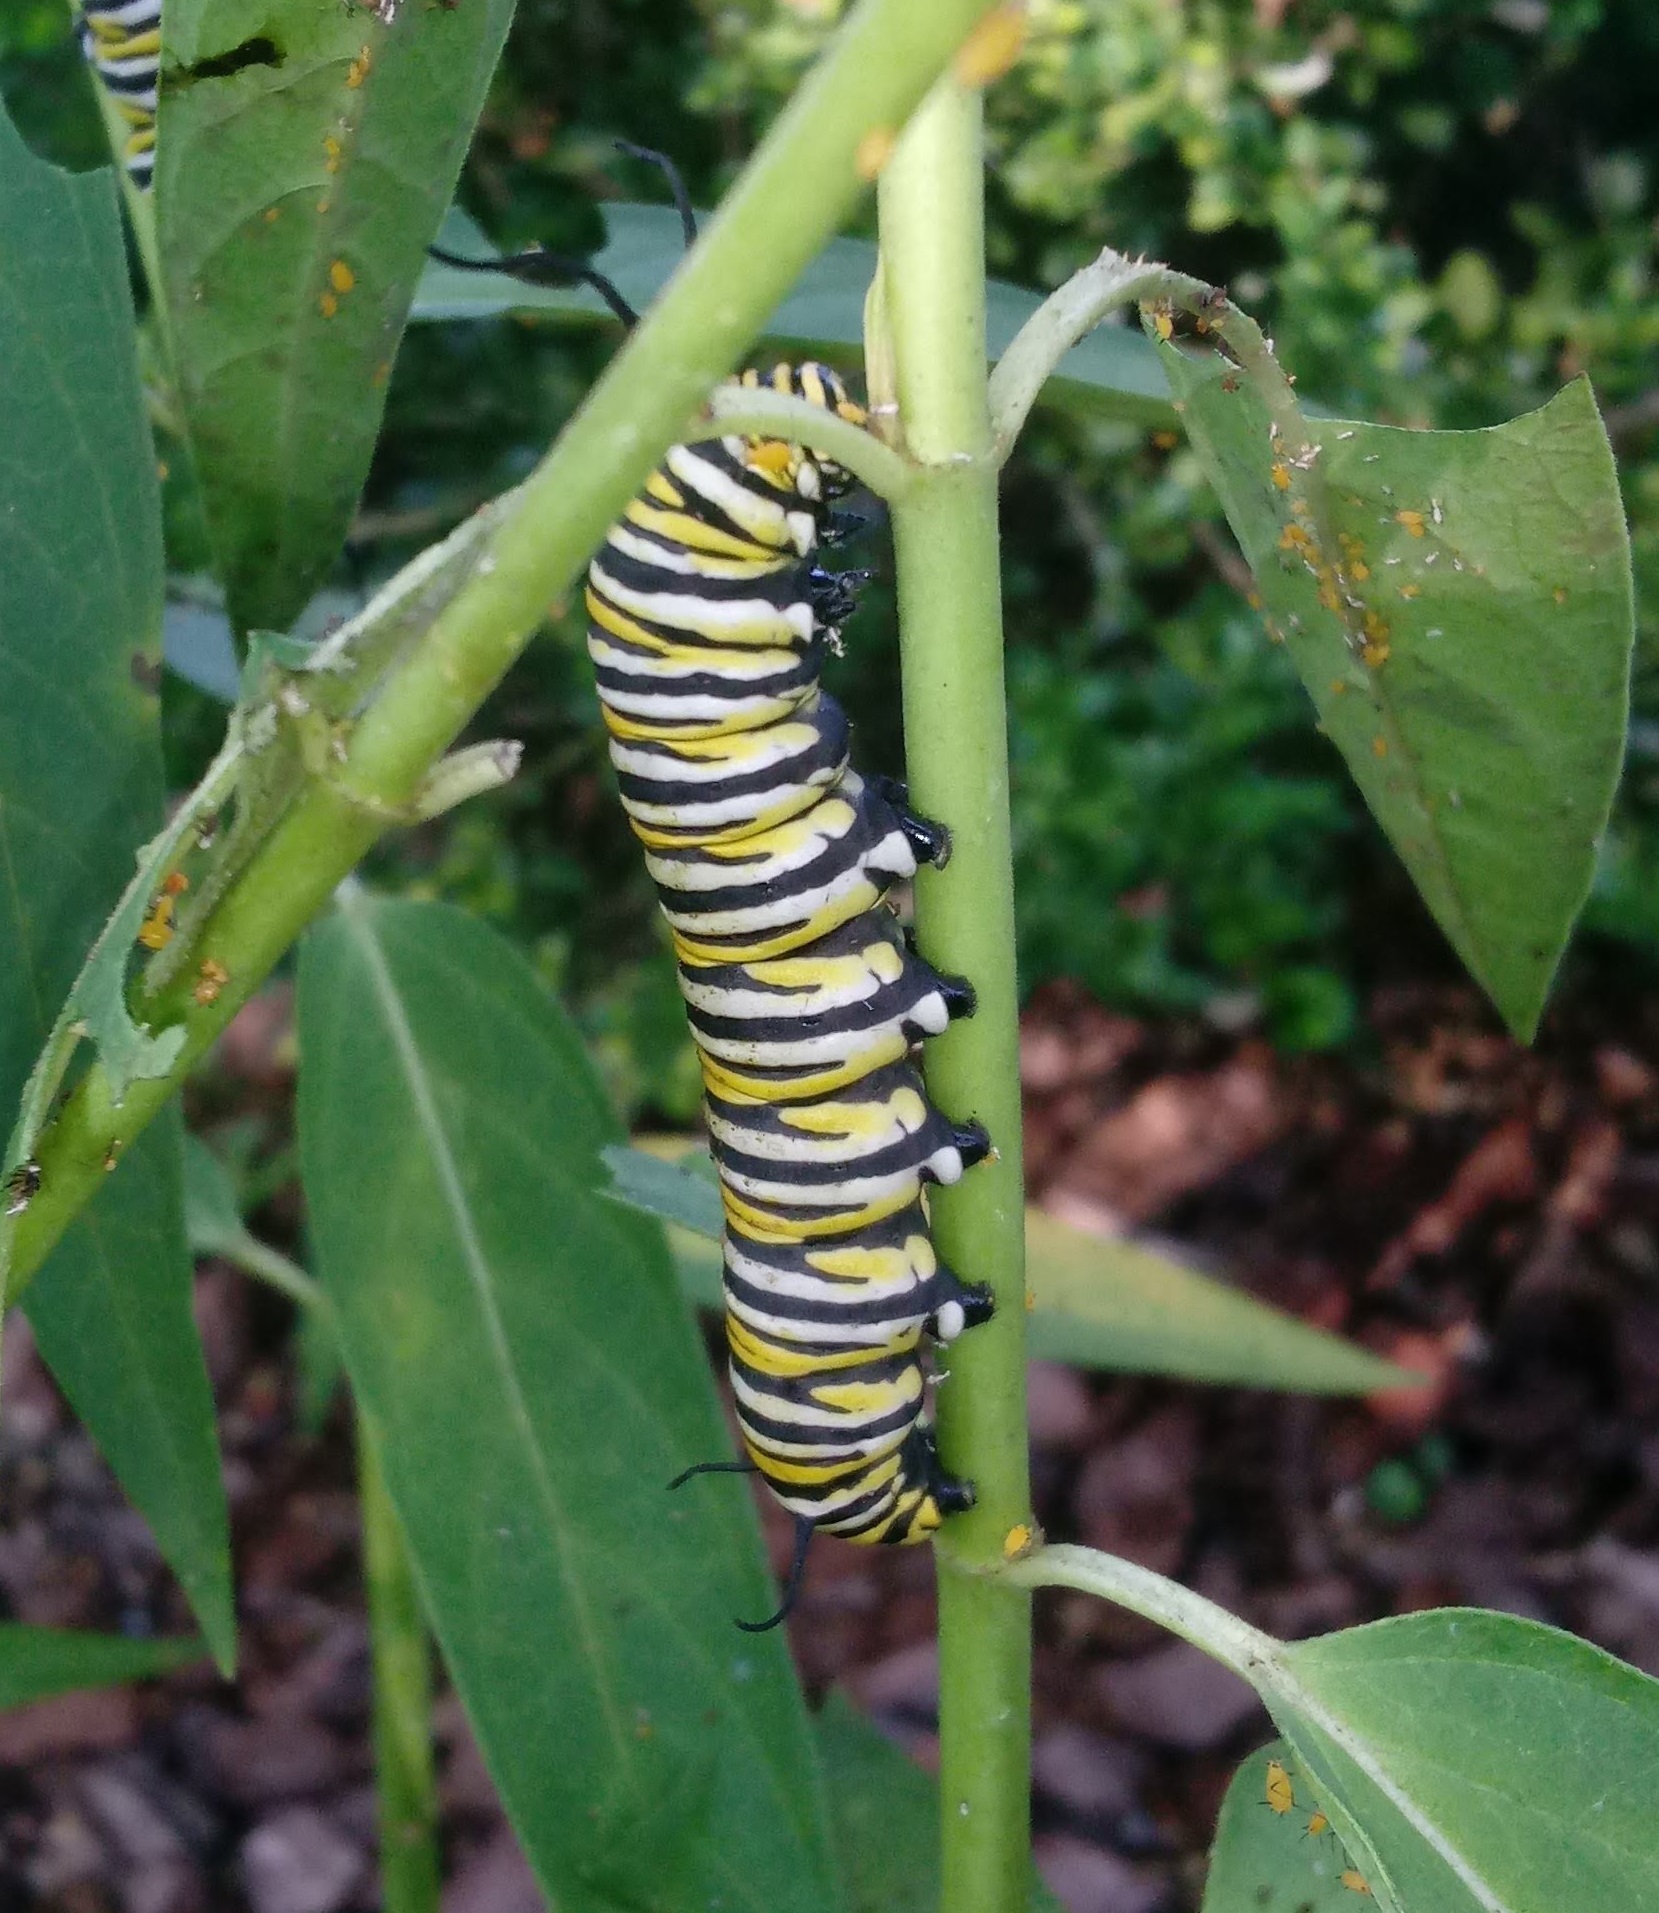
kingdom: Animalia
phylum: Arthropoda
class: Insecta
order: Lepidoptera
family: Nymphalidae
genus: Danaus
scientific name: Danaus plexippus
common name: Monarch
